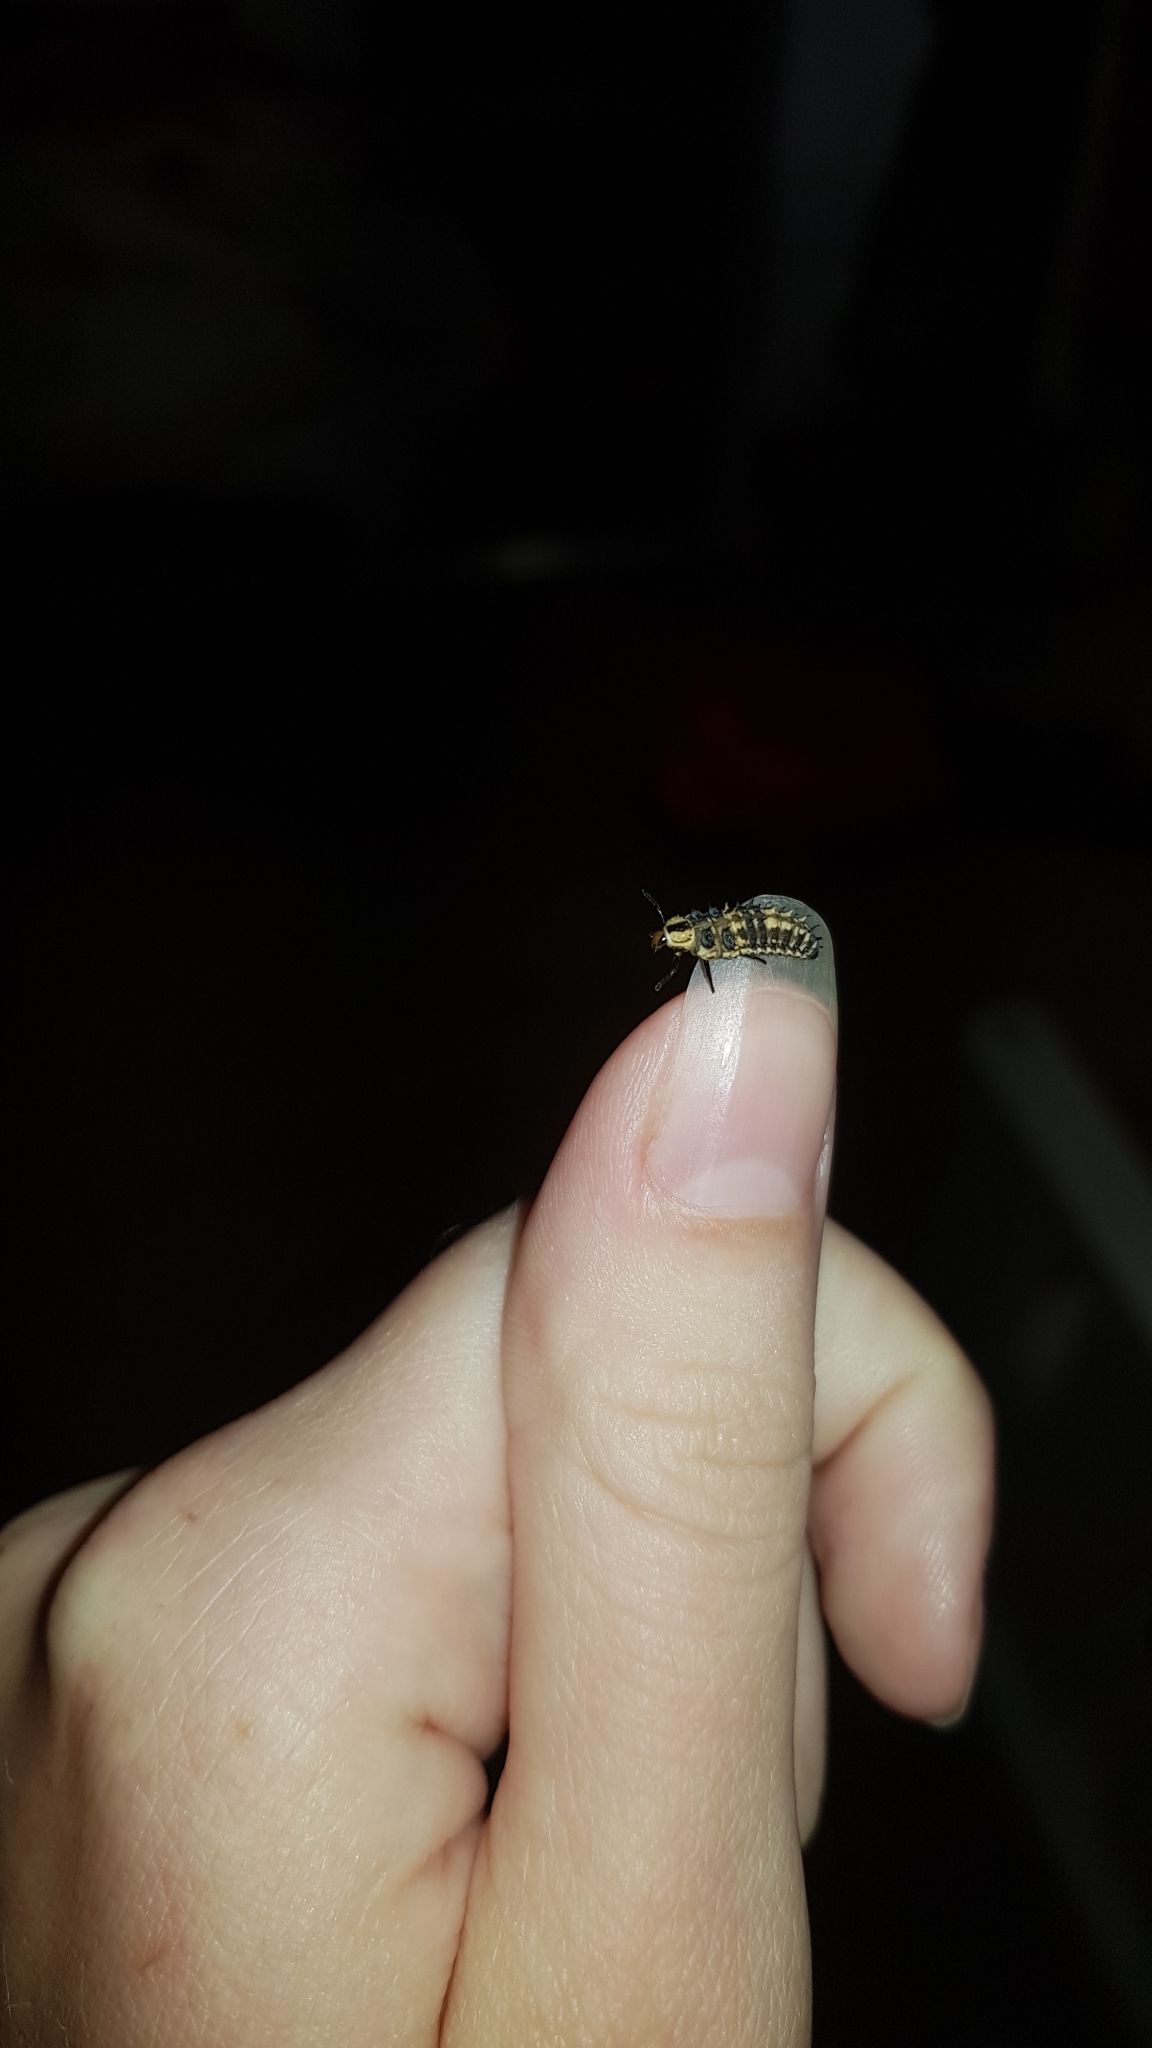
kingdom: Animalia
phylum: Arthropoda
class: Insecta
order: Coleoptera
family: Coccinellidae
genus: Harmonia
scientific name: Harmonia
